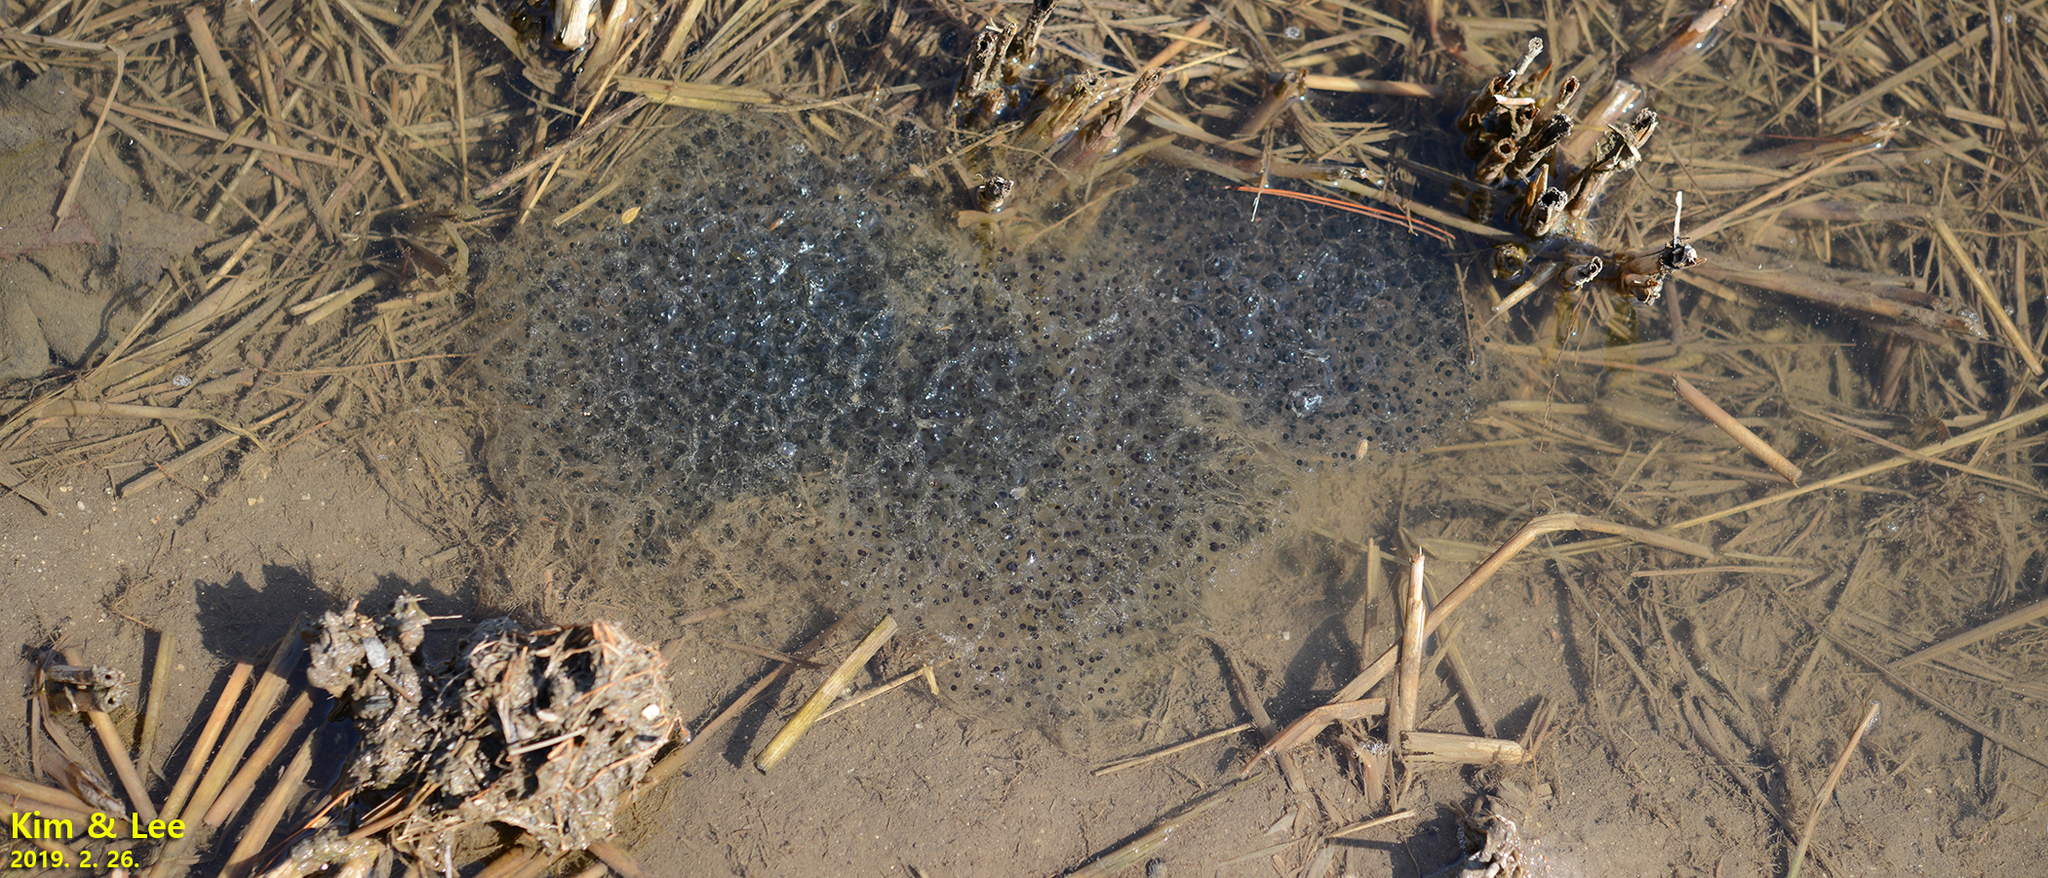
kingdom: Animalia
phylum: Chordata
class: Amphibia
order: Anura
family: Ranidae
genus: Rana
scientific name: Rana uenoi
